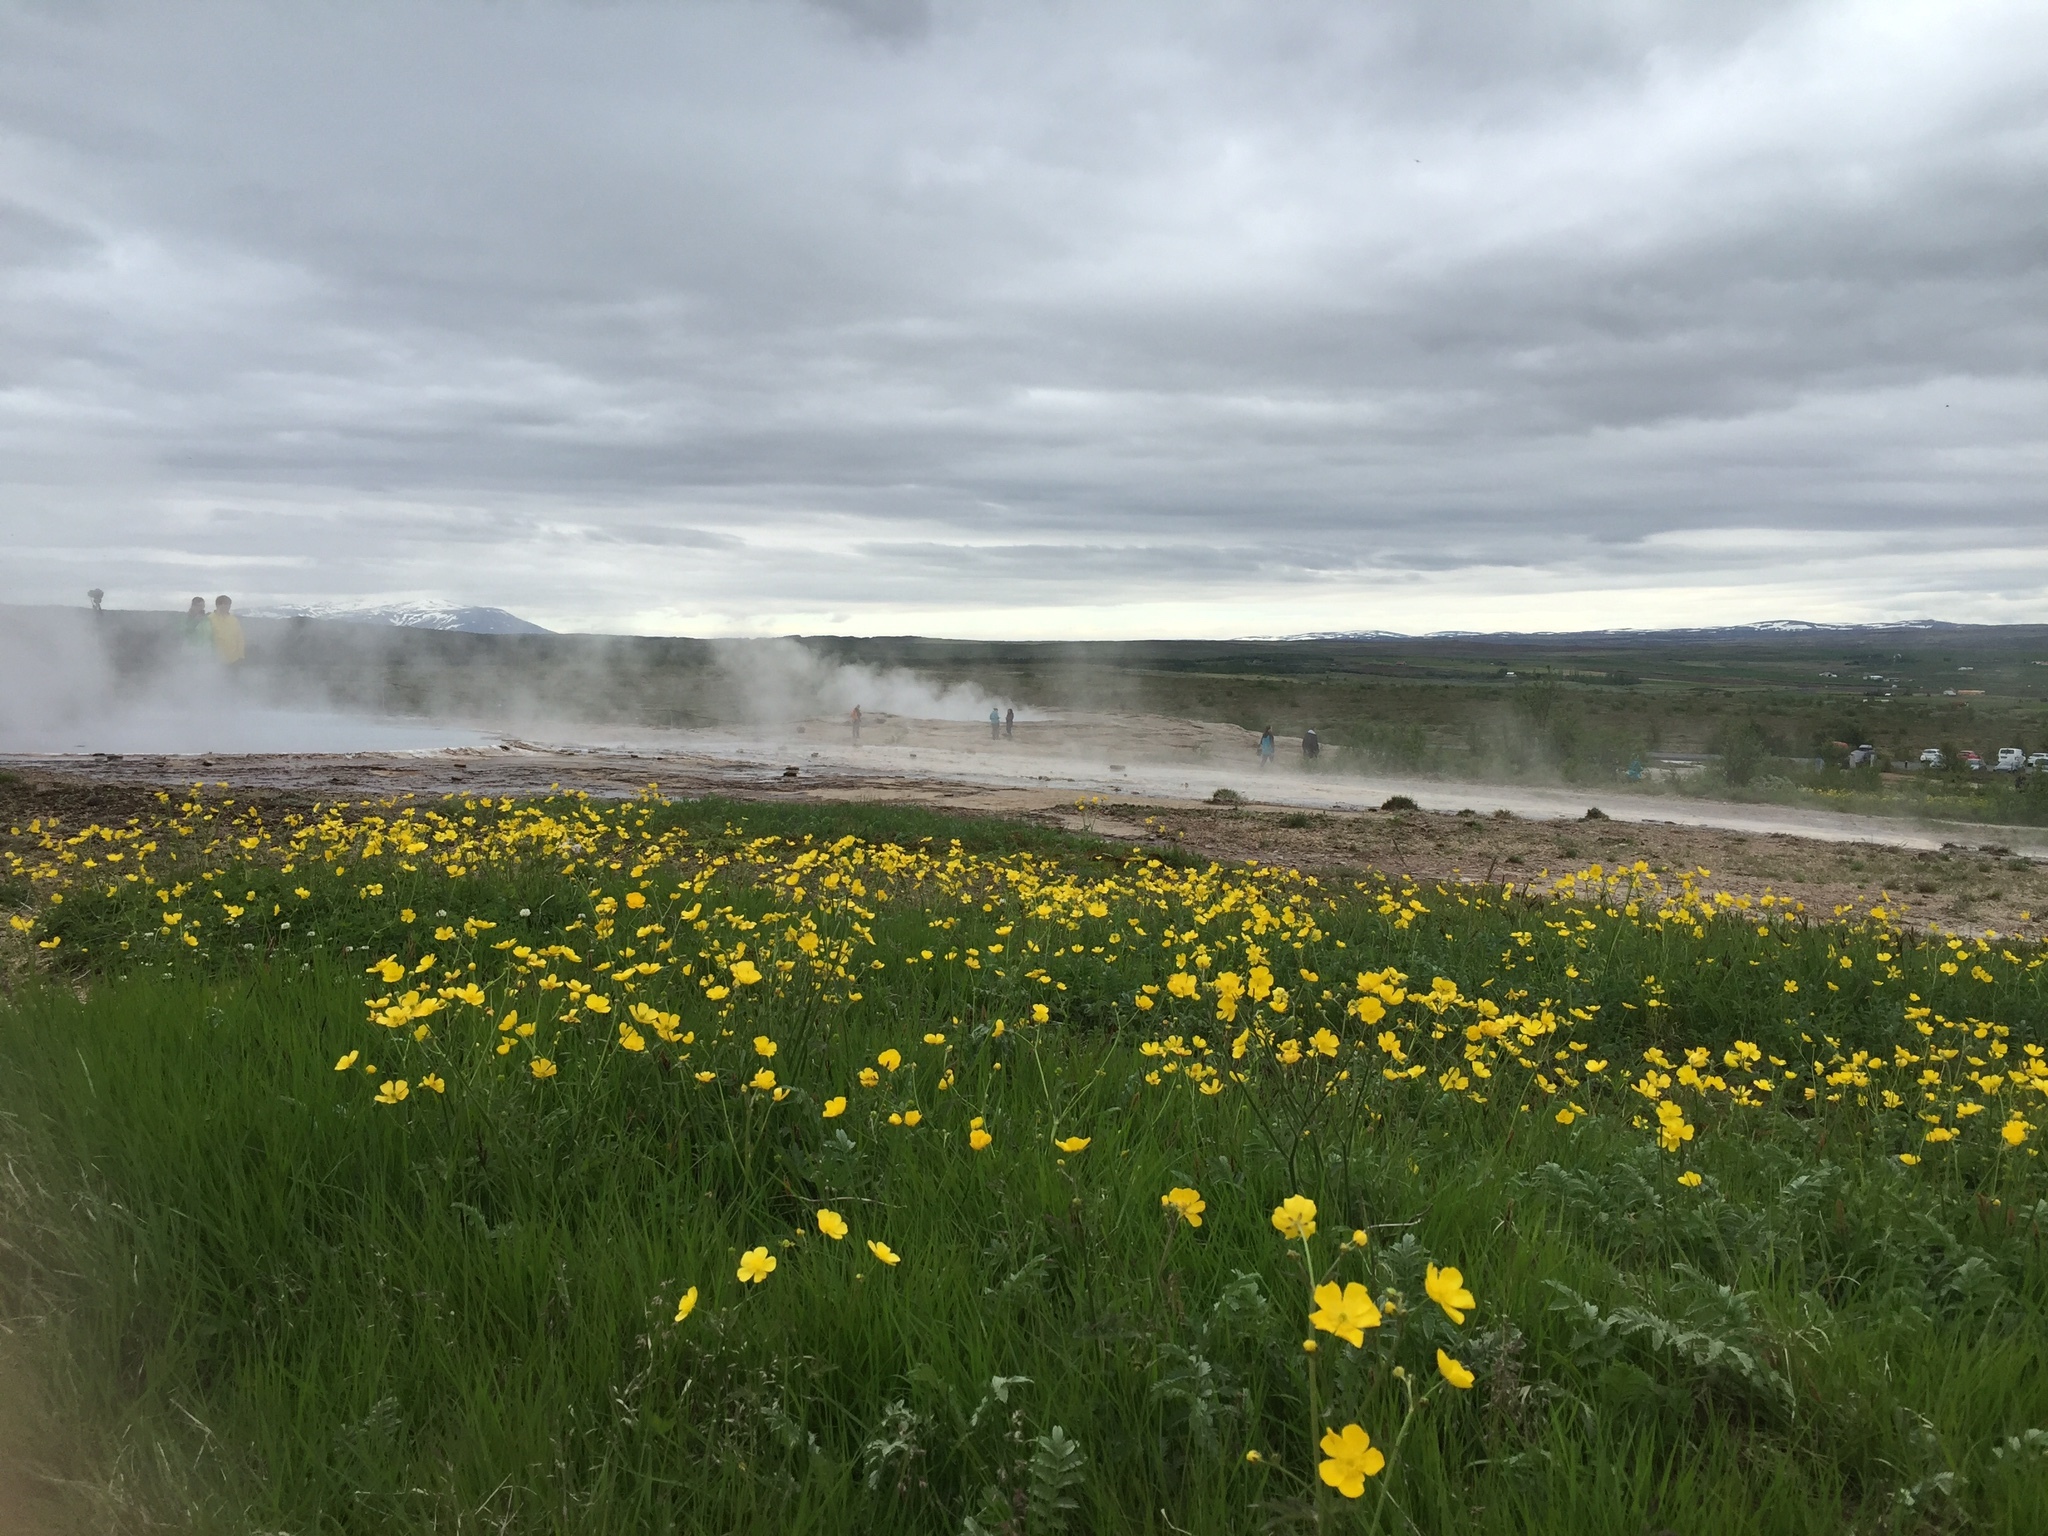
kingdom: Plantae
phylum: Tracheophyta
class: Magnoliopsida
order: Ranunculales
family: Ranunculaceae
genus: Ranunculus
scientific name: Ranunculus acris
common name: Meadow buttercup
